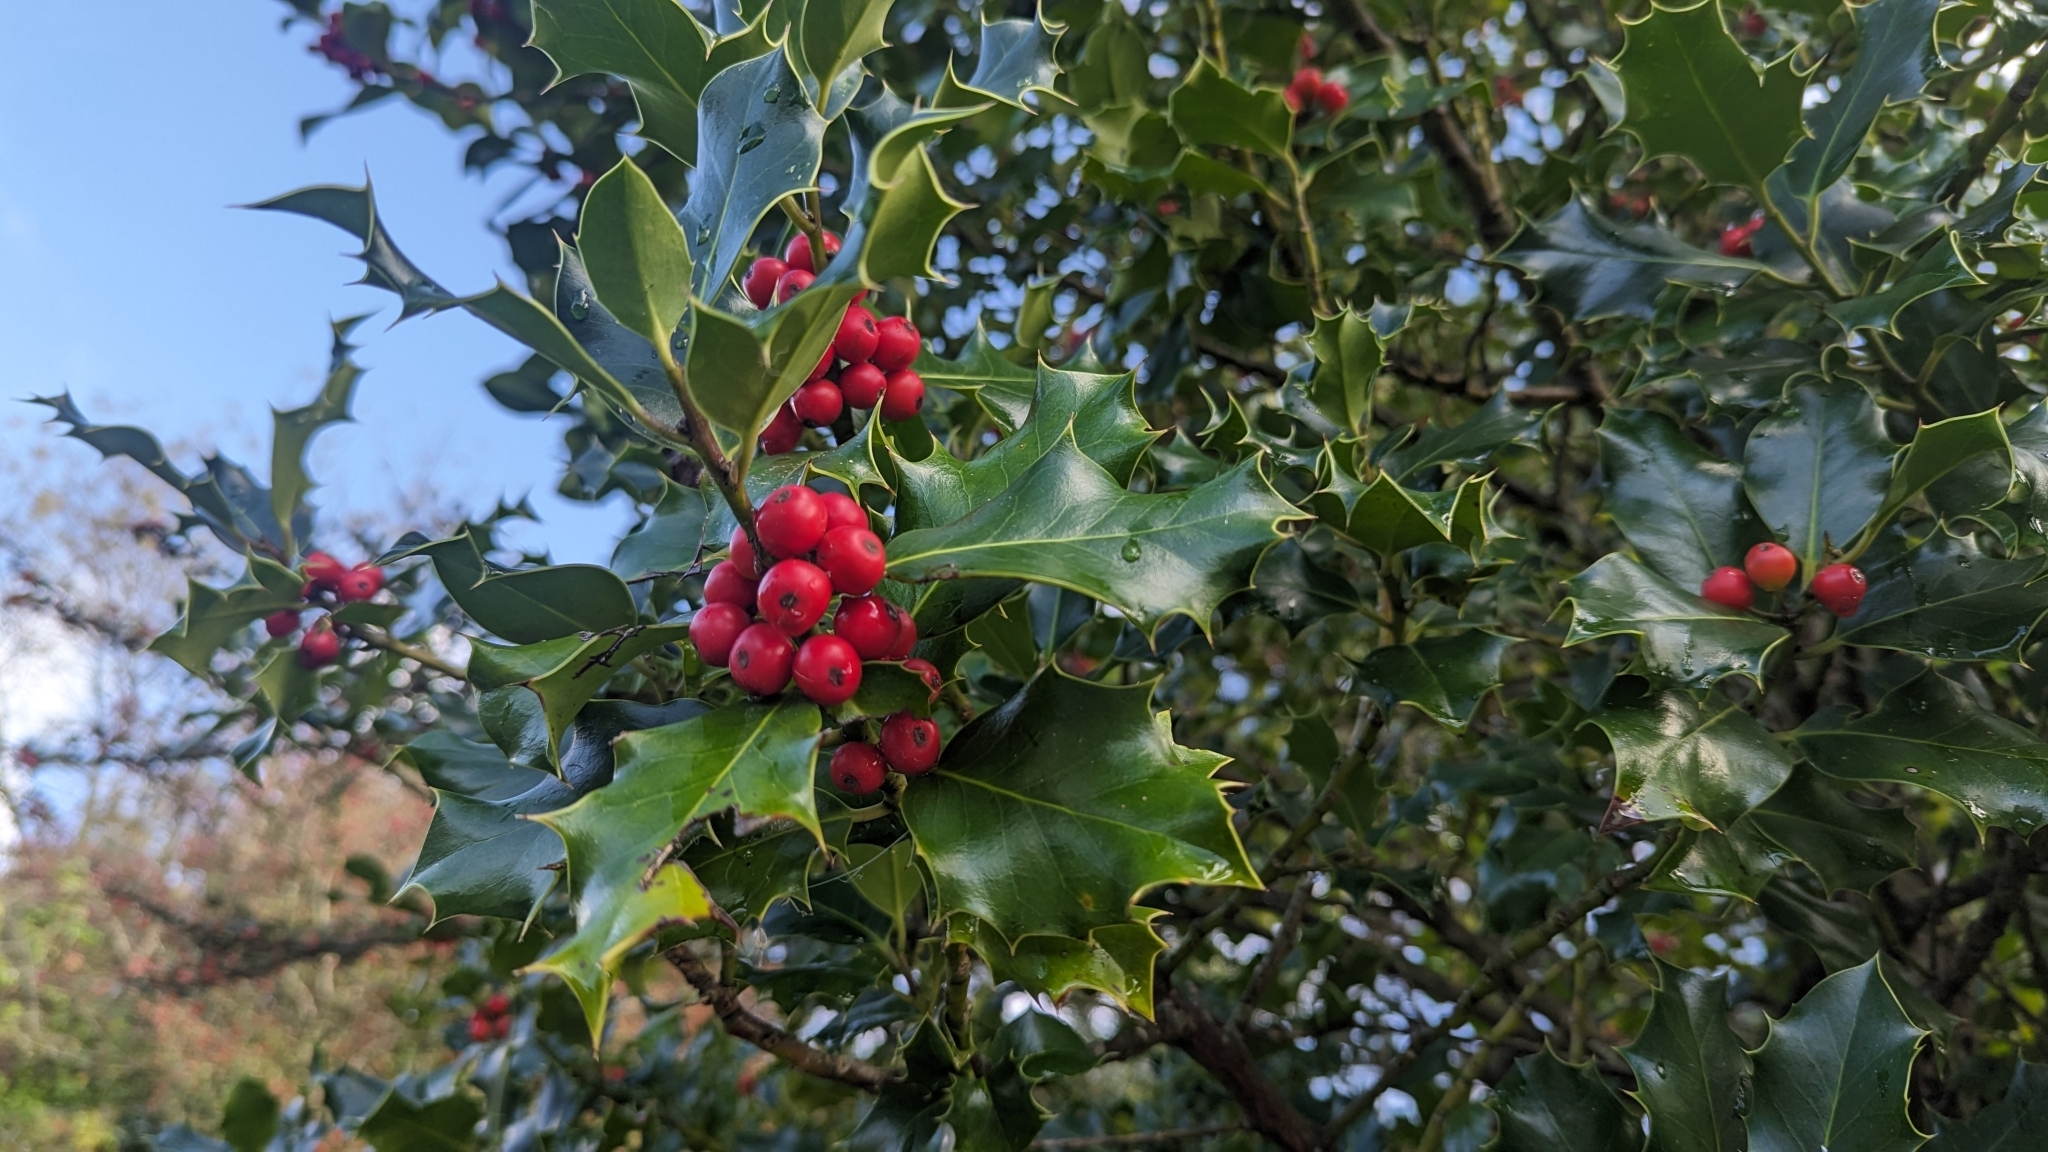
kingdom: Plantae
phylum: Tracheophyta
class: Magnoliopsida
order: Aquifoliales
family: Aquifoliaceae
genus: Ilex
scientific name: Ilex aquifolium
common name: English holly
